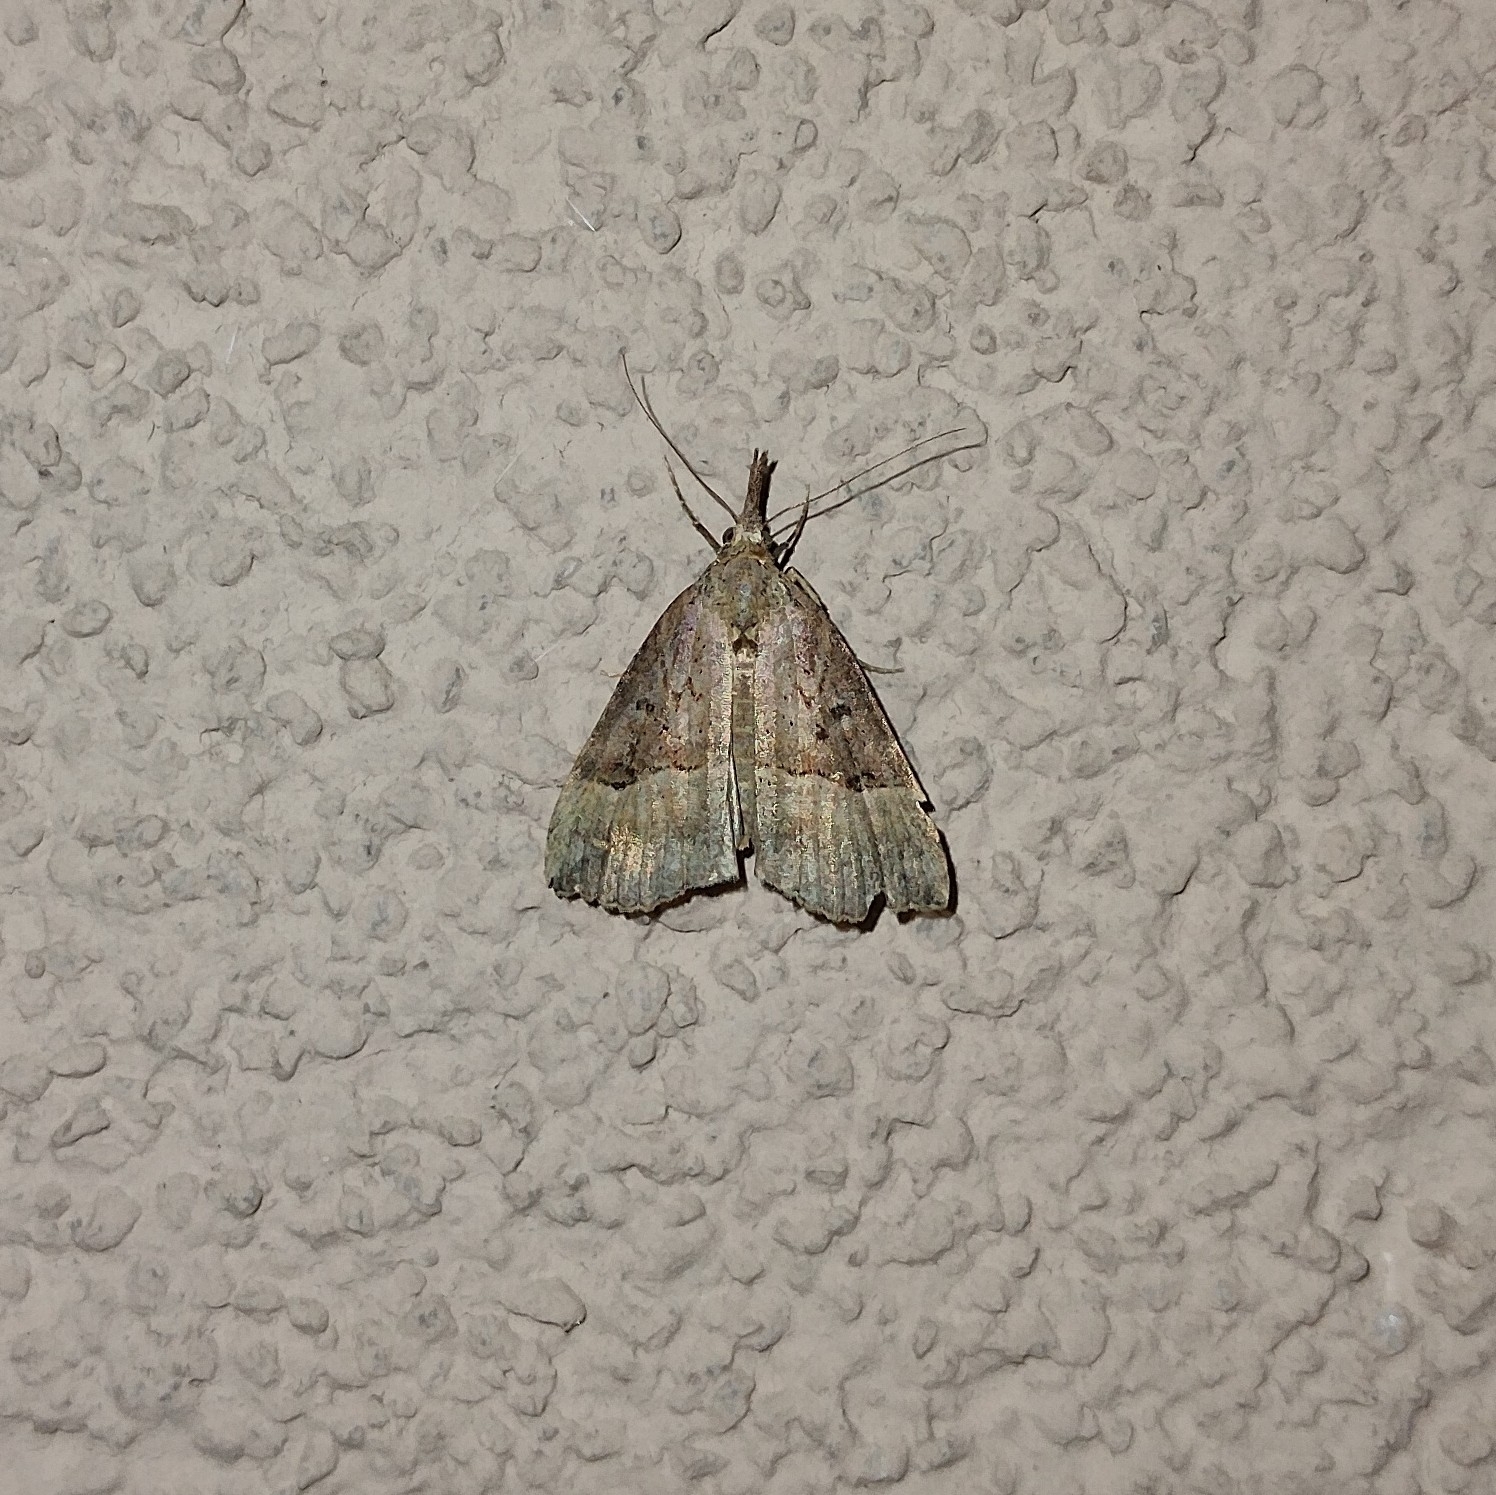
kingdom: Animalia
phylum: Arthropoda
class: Insecta
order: Lepidoptera
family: Erebidae
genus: Hypena
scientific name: Hypena rostralis
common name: Buttoned snout
